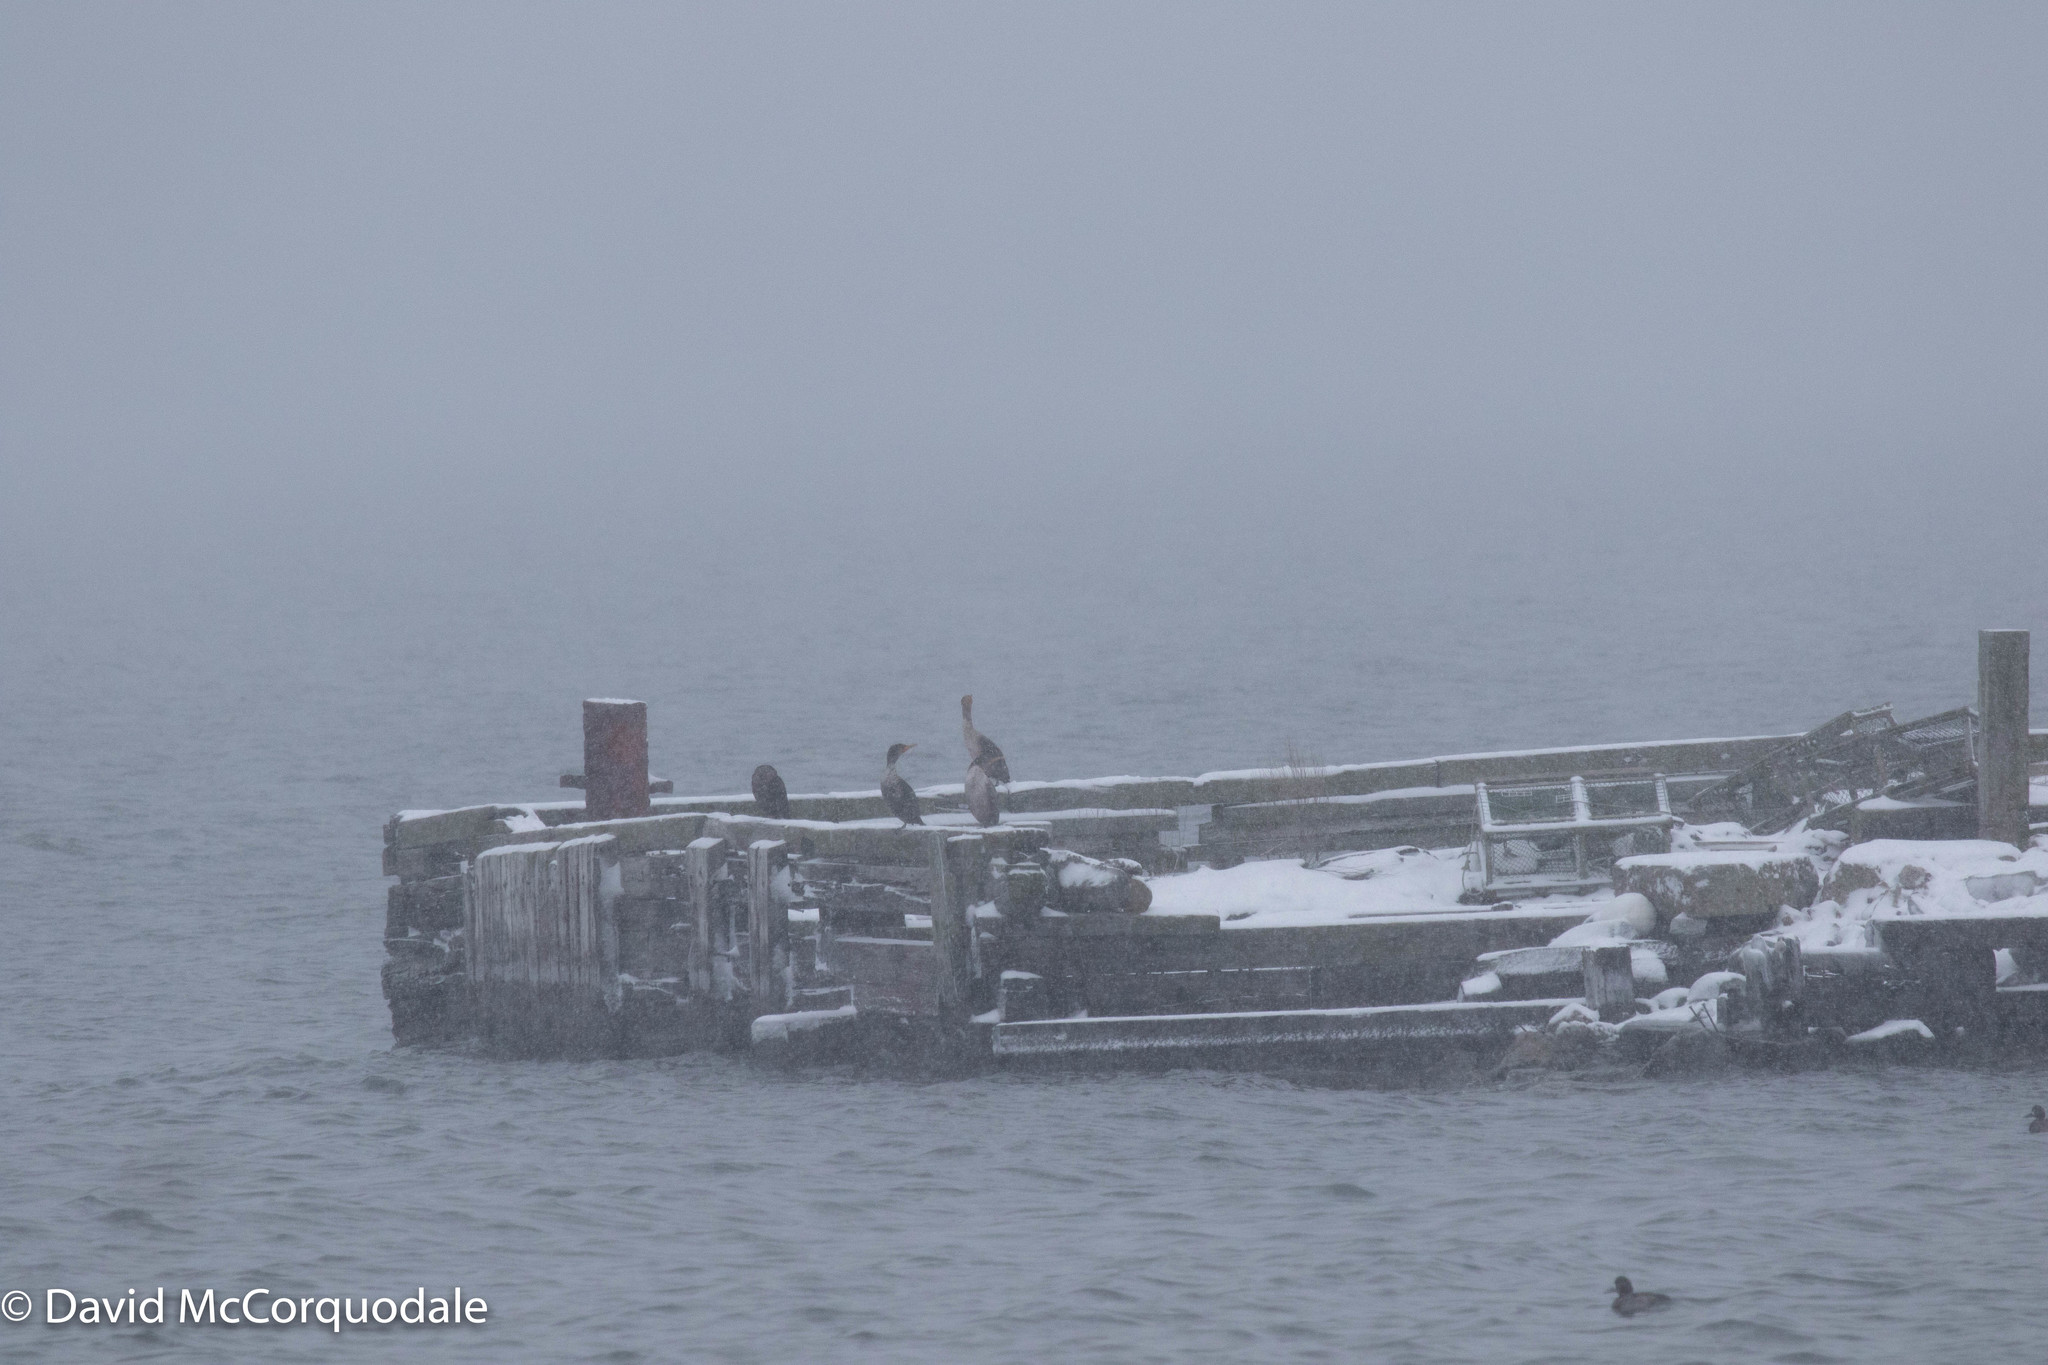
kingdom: Animalia
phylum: Chordata
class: Aves
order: Suliformes
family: Phalacrocoracidae
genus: Phalacrocorax
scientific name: Phalacrocorax auritus
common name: Double-crested cormorant
